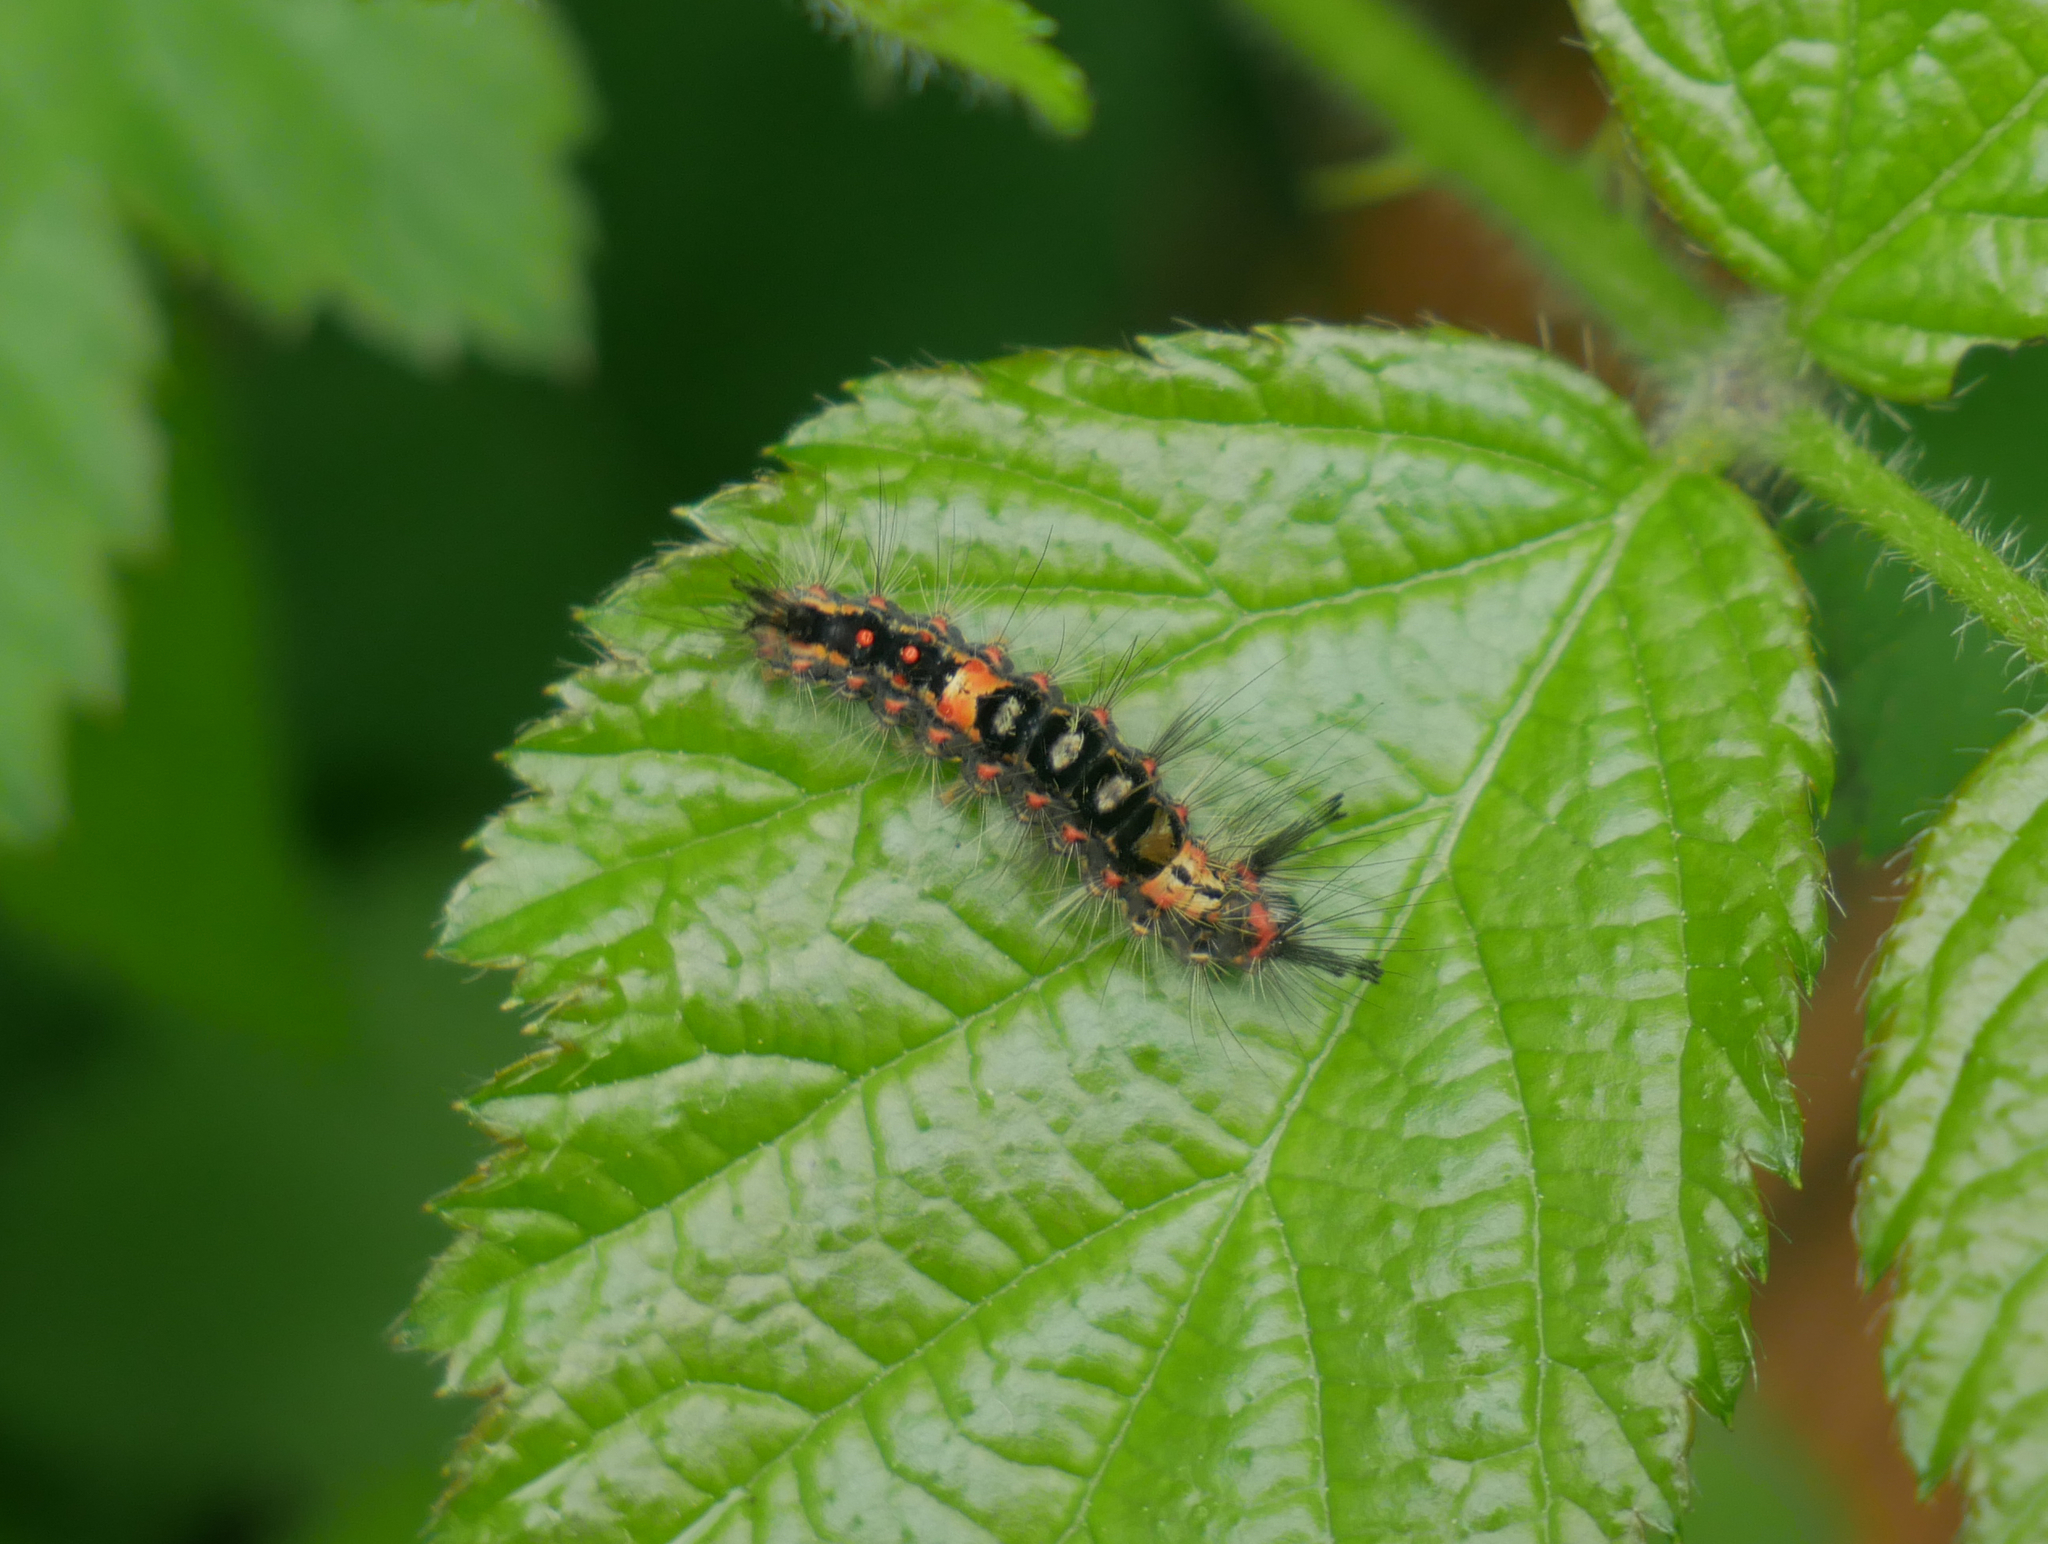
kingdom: Animalia
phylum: Arthropoda
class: Insecta
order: Lepidoptera
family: Erebidae
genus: Orgyia
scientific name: Orgyia antiqua
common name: Vapourer
